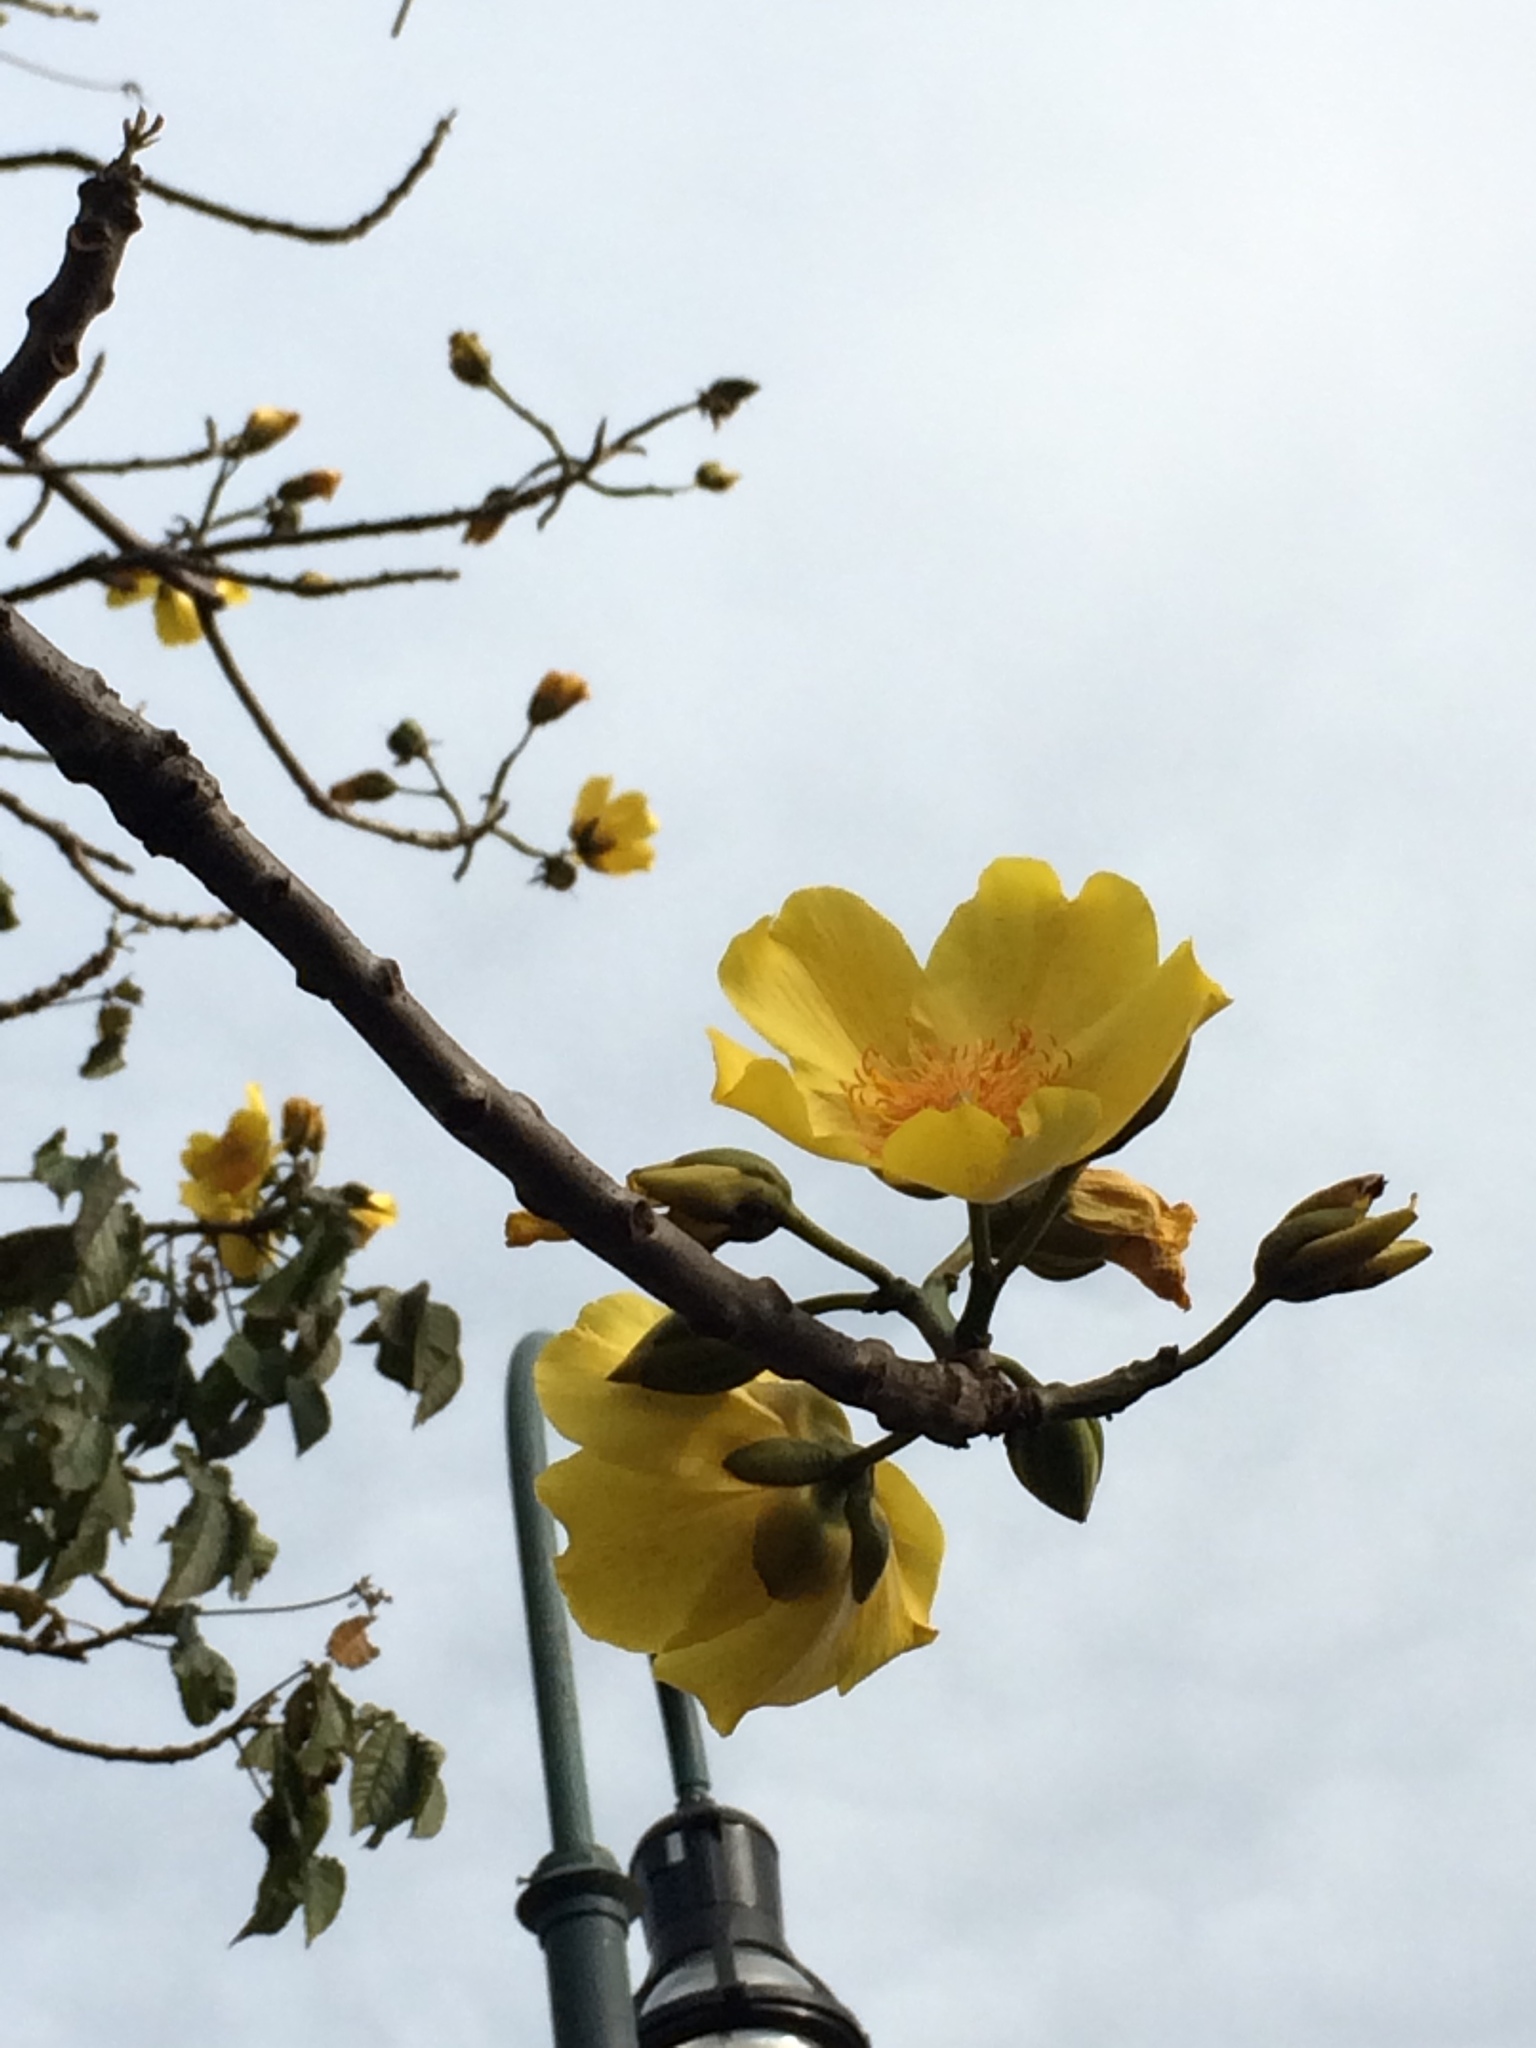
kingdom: Plantae
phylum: Tracheophyta
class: Magnoliopsida
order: Malvales
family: Cochlospermaceae
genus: Cochlospermum
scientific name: Cochlospermum vitifolium
